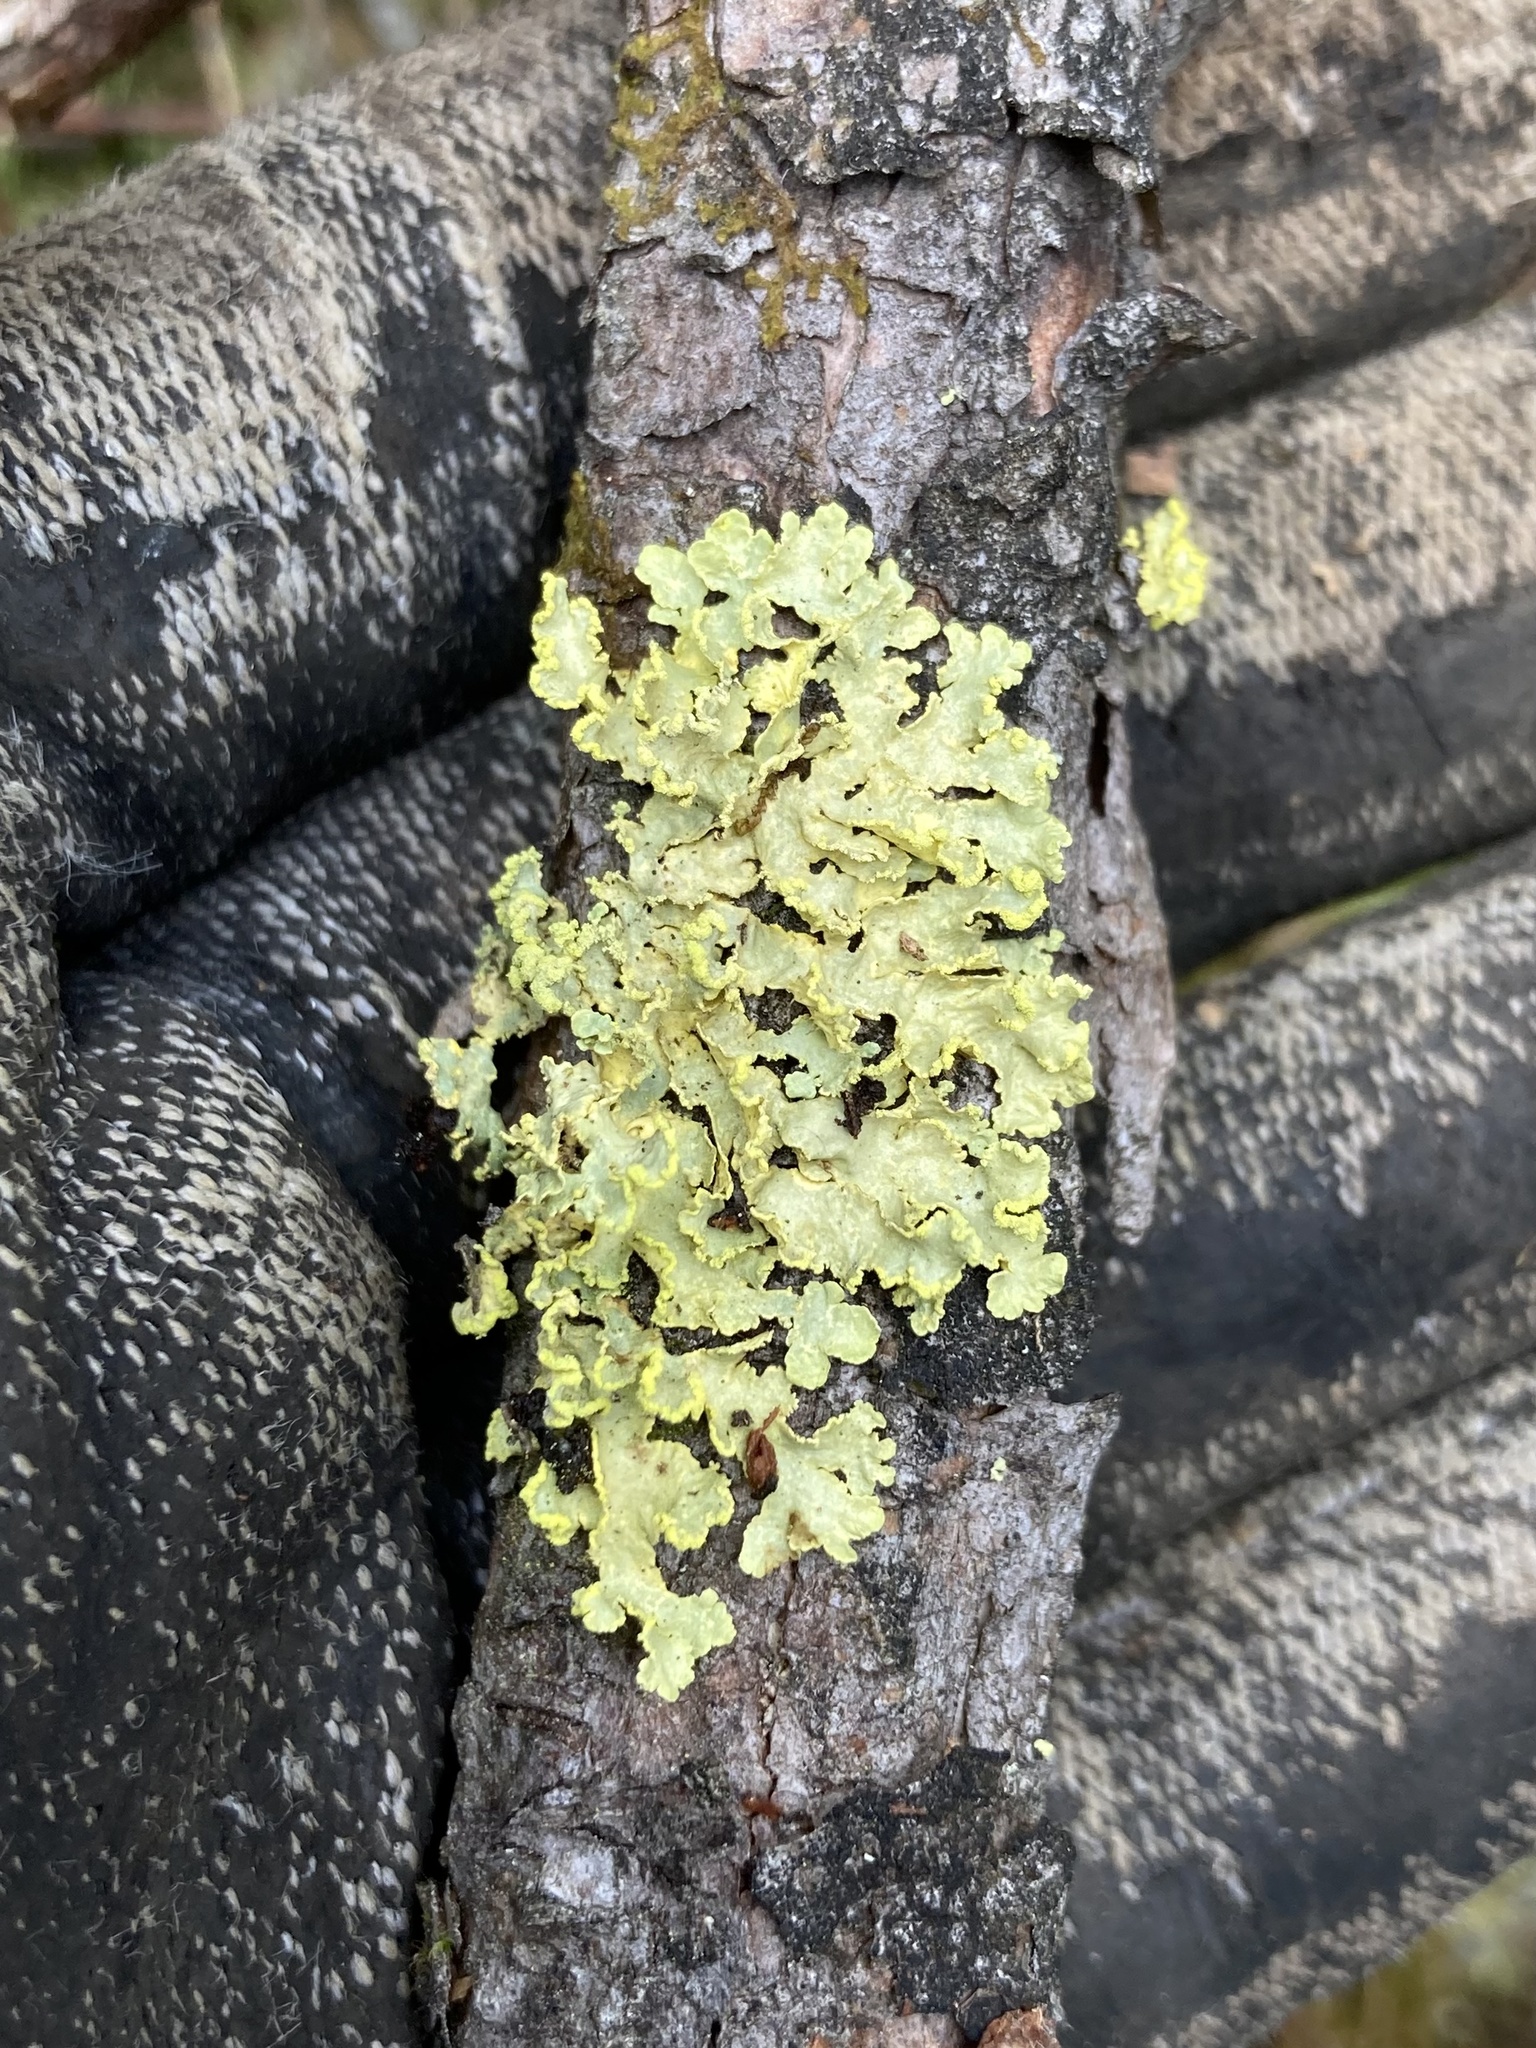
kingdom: Fungi
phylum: Ascomycota
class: Lecanoromycetes
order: Lecanorales
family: Parmeliaceae
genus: Vulpicida
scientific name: Vulpicida pinastri
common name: Powdered sunshine lichen
